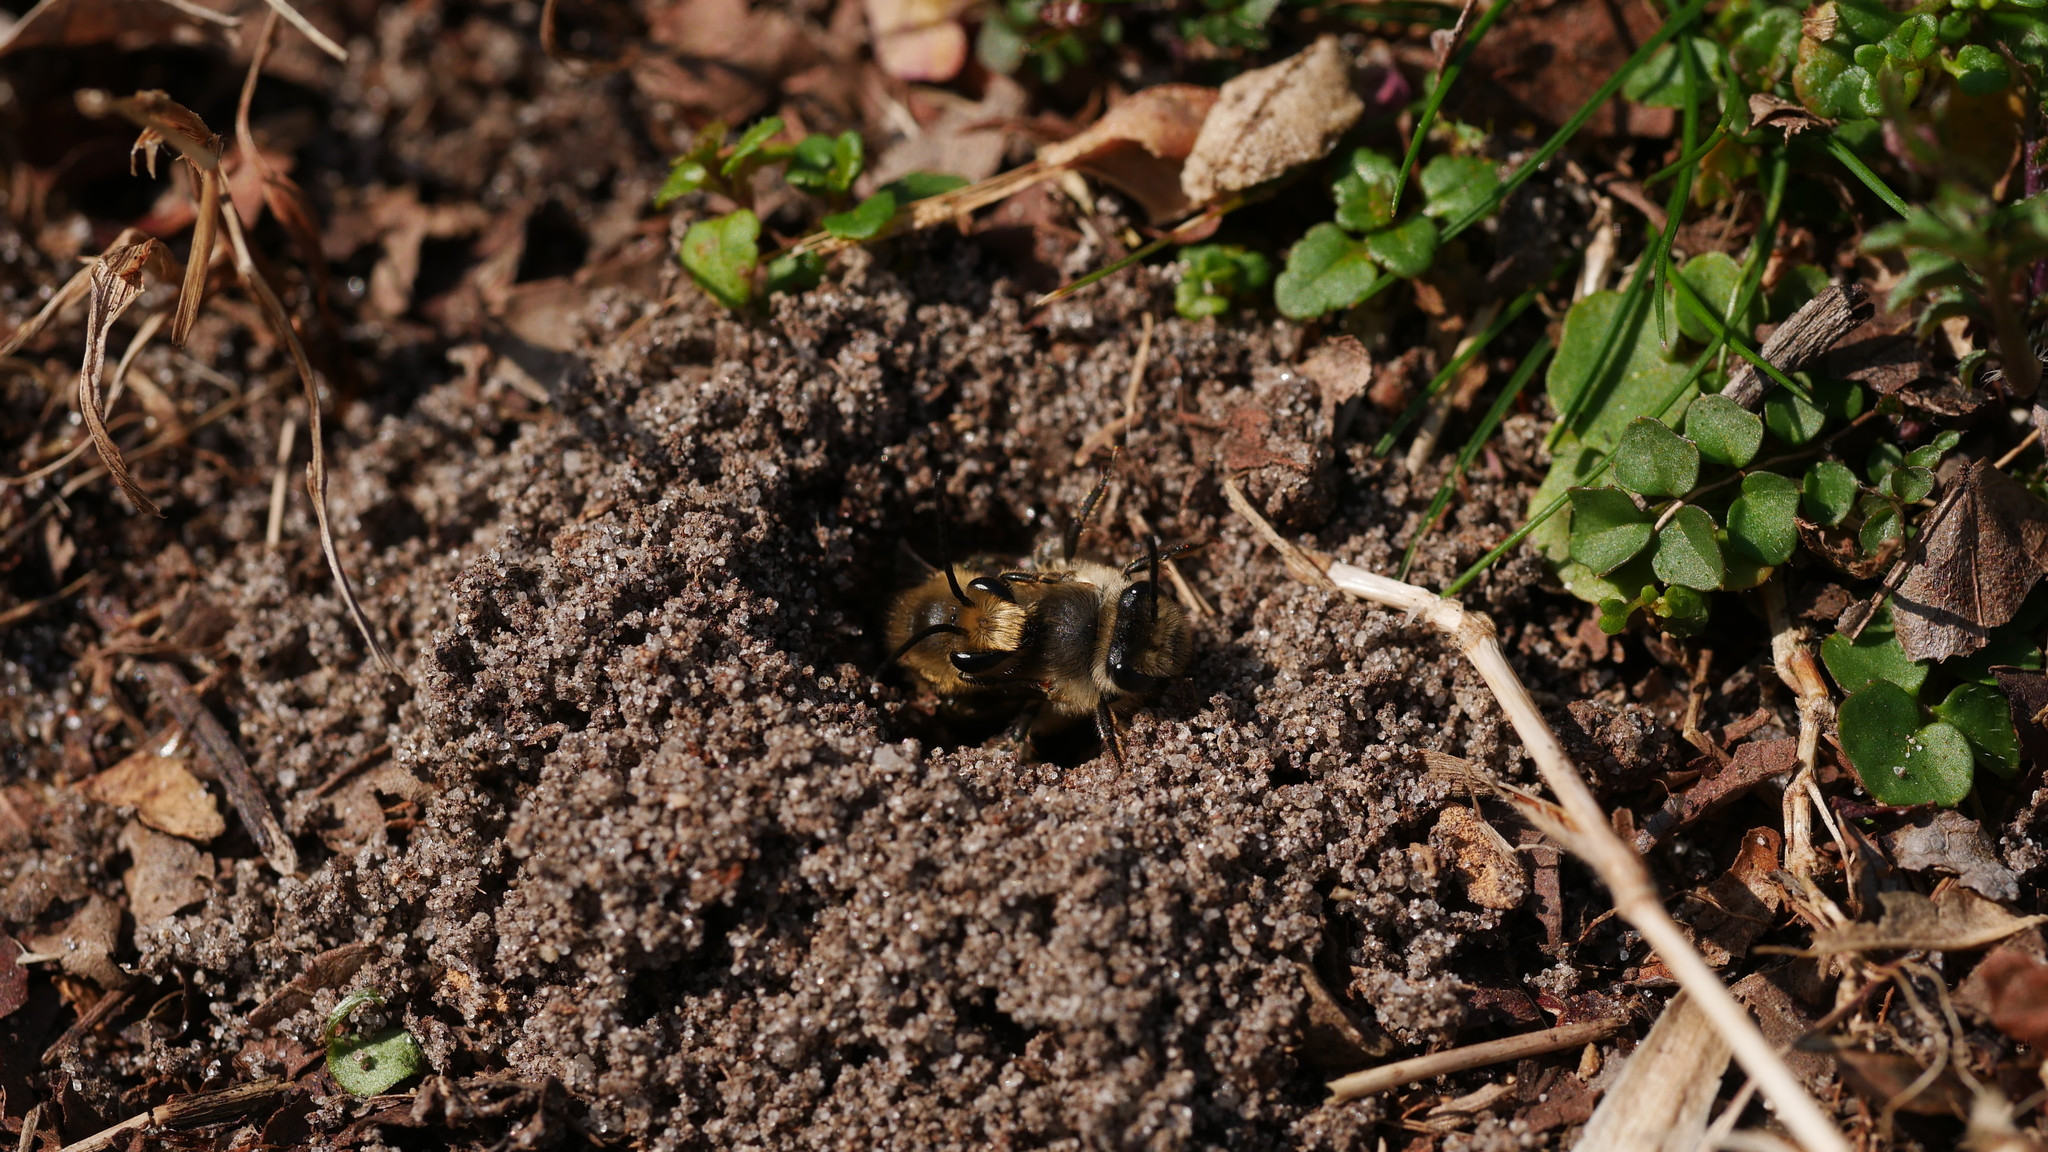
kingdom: Animalia
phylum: Arthropoda
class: Insecta
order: Hymenoptera
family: Colletidae
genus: Colletes
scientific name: Colletes inaequalis
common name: Unequal cellophane bee
